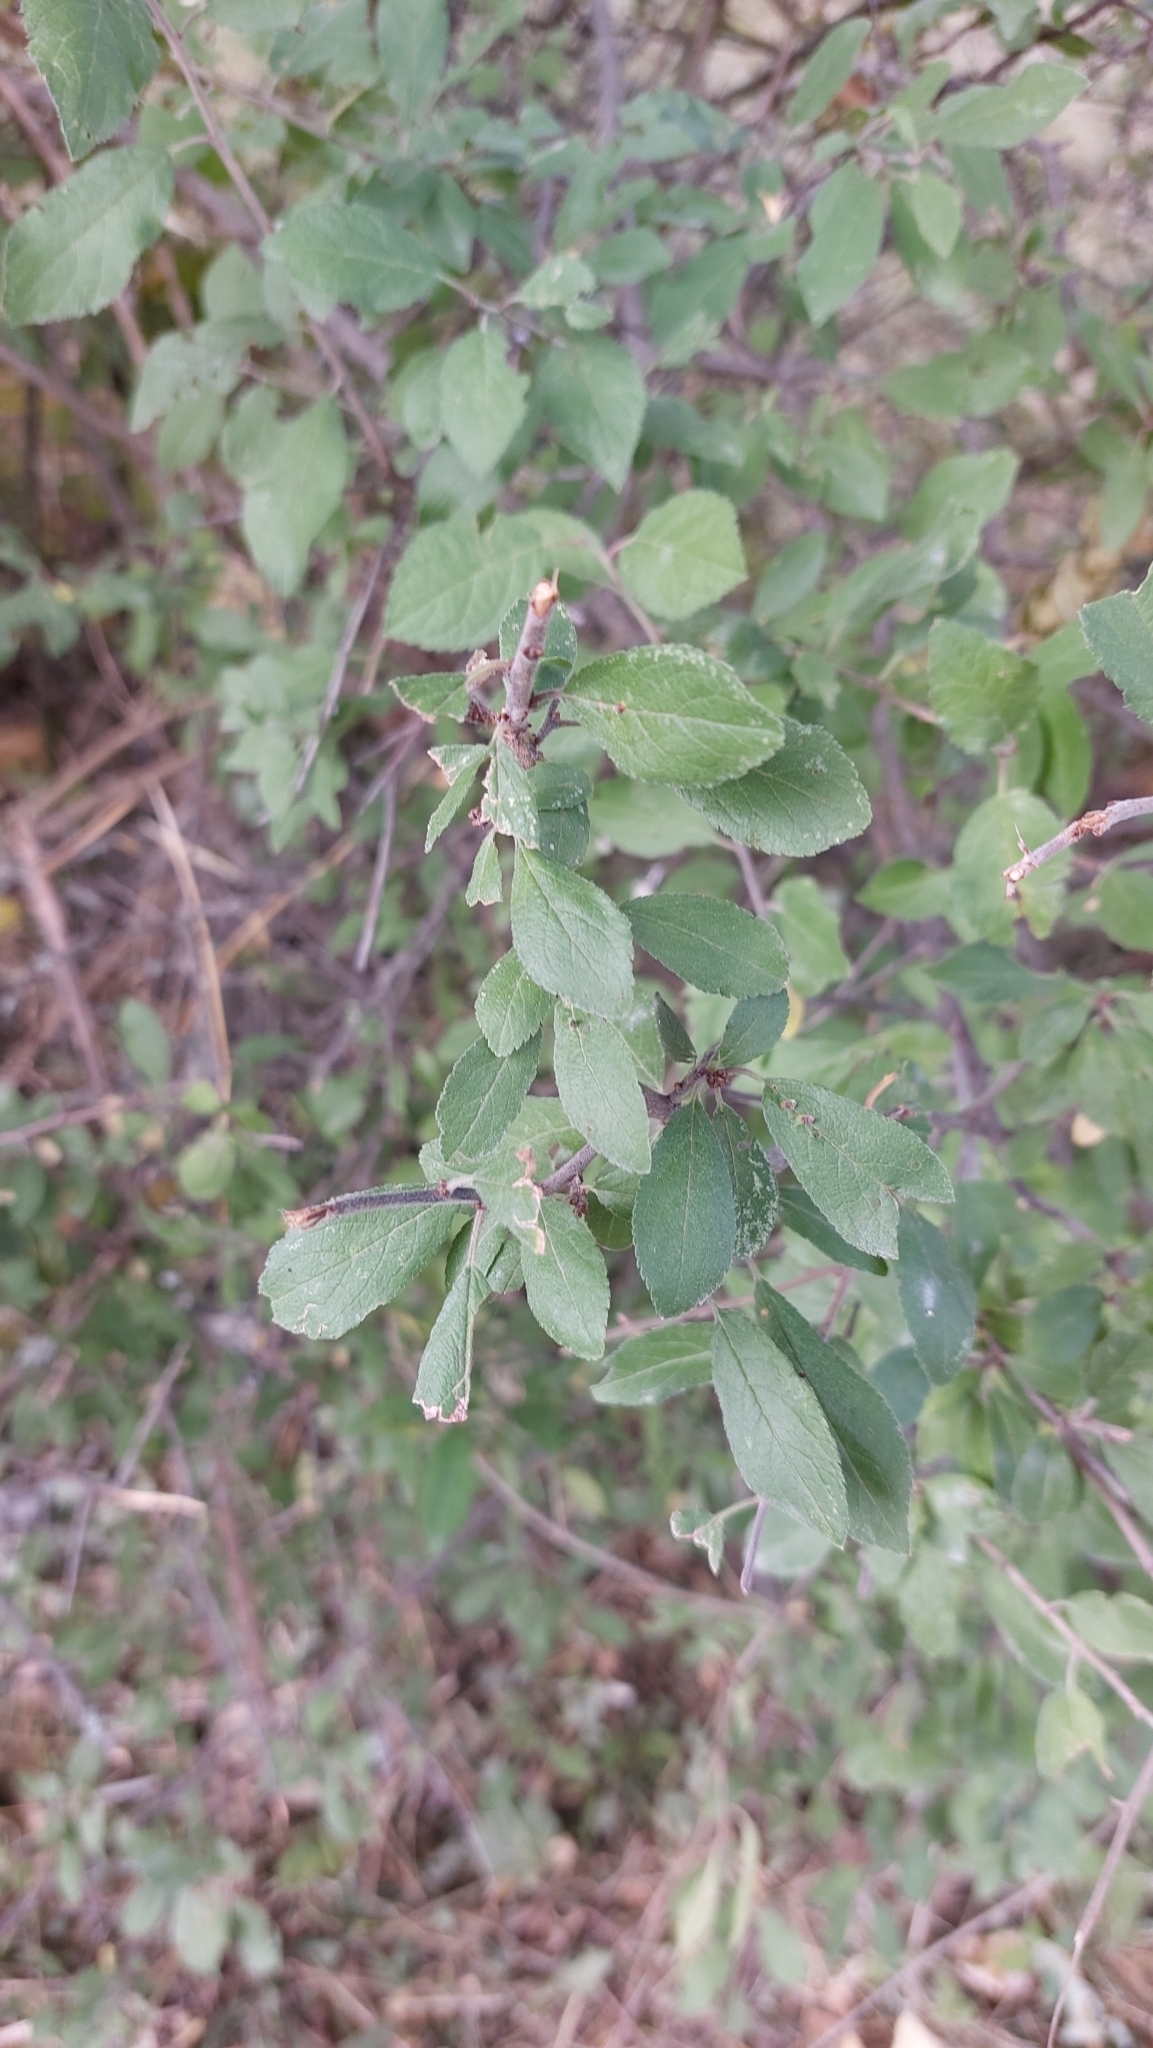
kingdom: Plantae
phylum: Tracheophyta
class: Magnoliopsida
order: Rosales
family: Rosaceae
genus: Prunus
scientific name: Prunus spinosa
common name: Blackthorn
